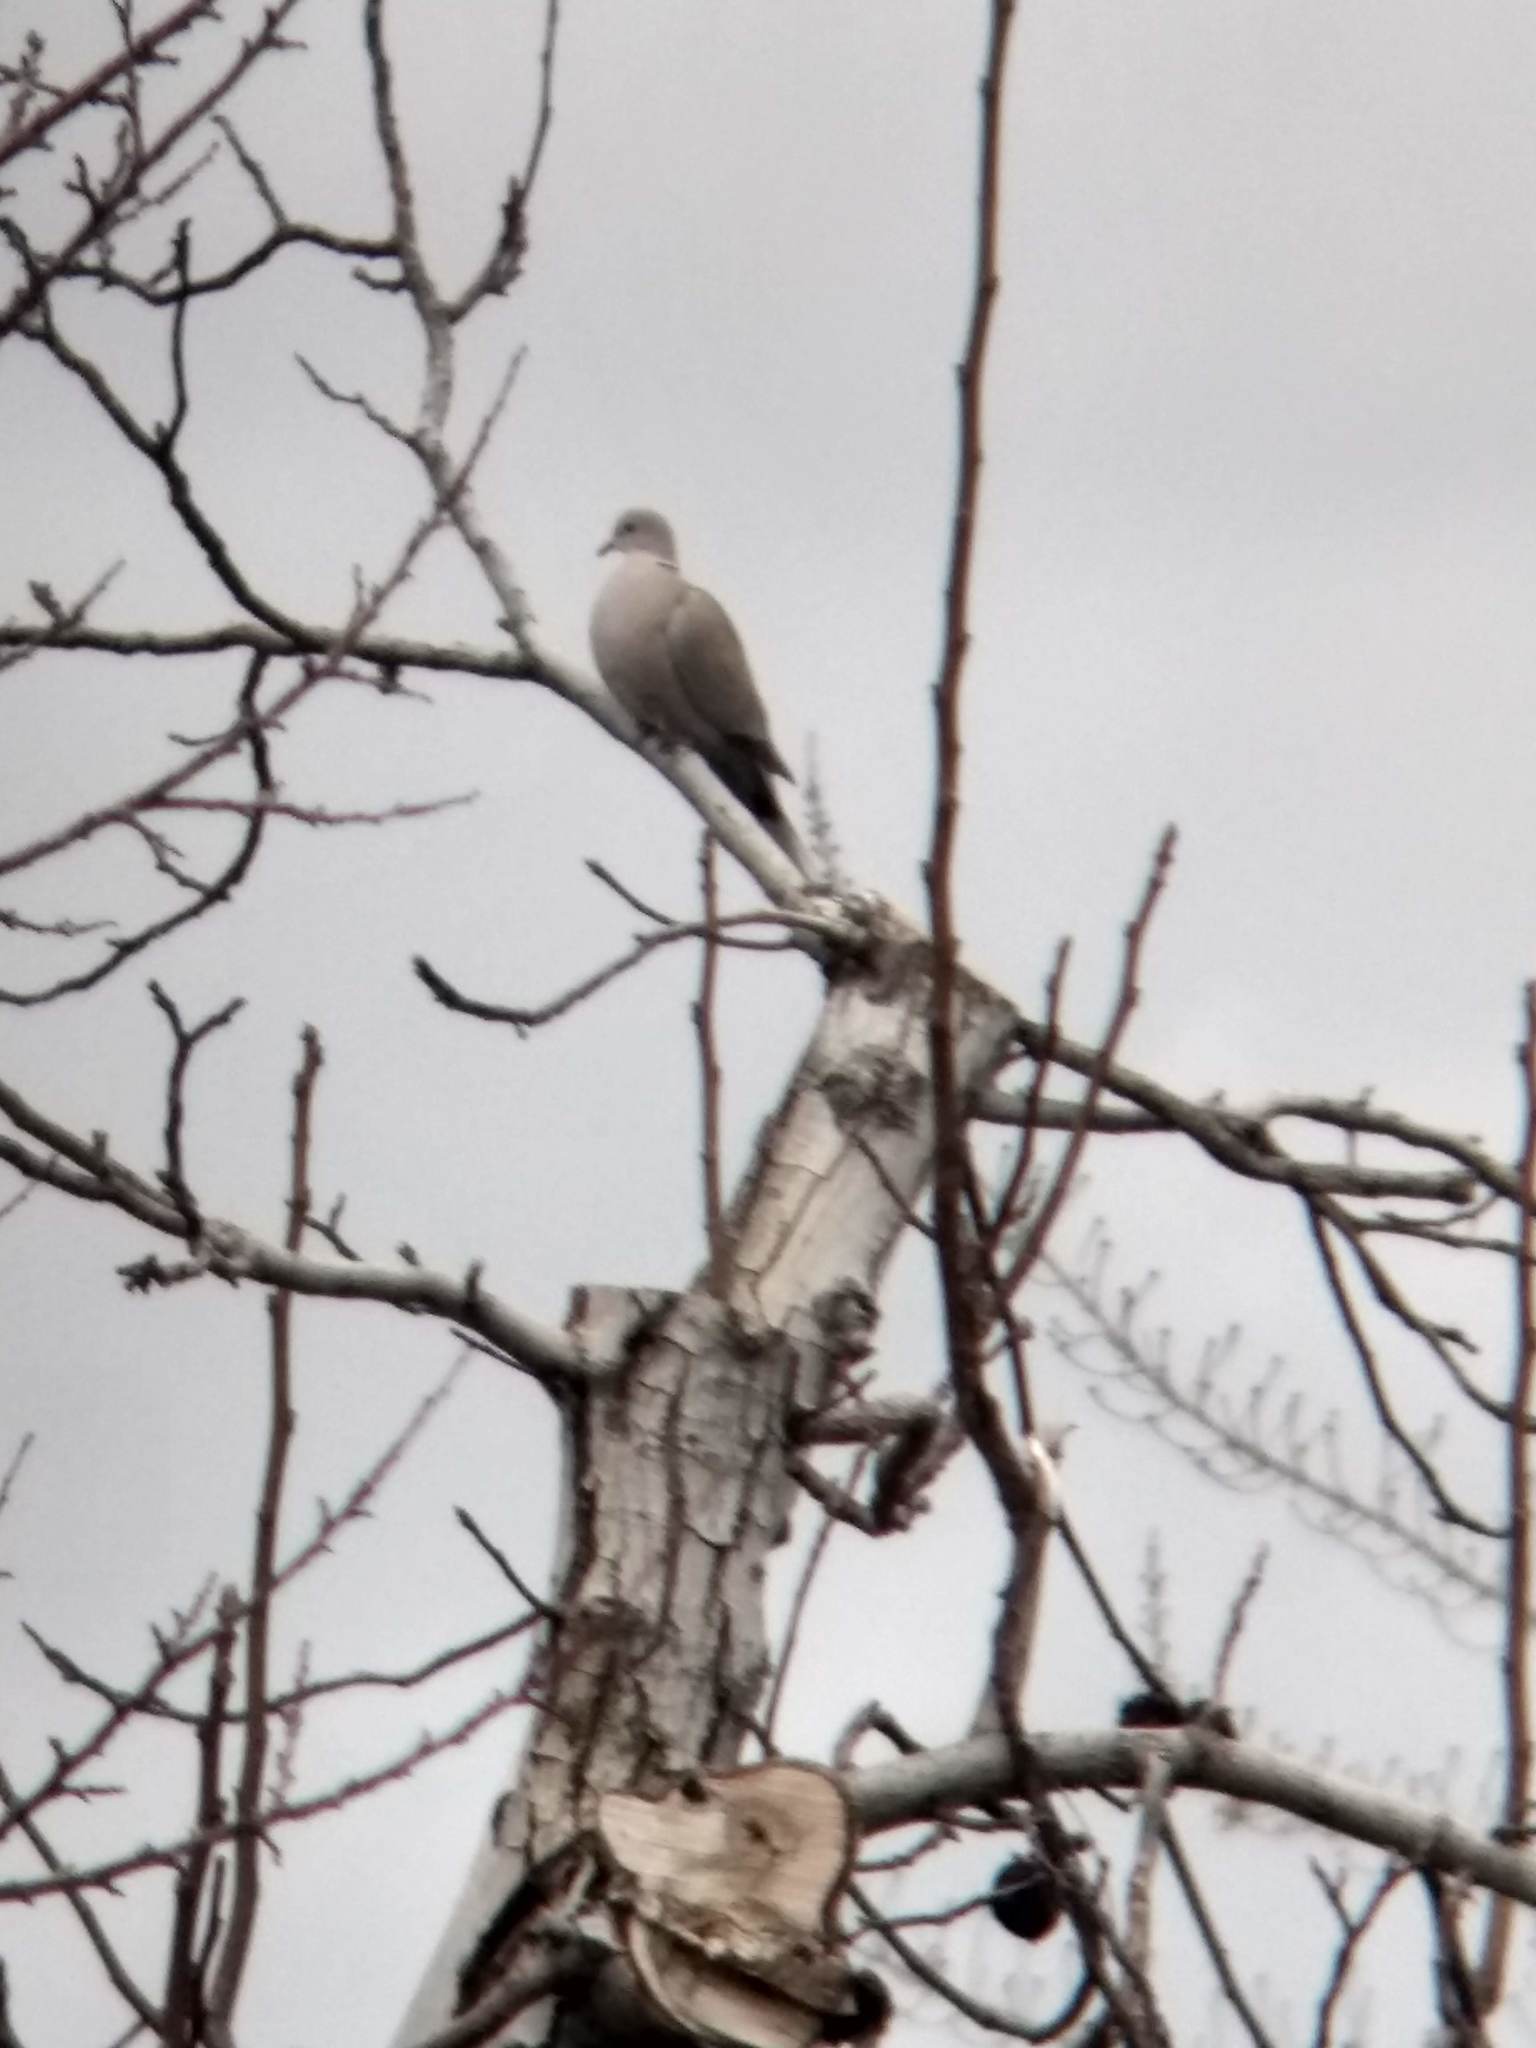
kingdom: Animalia
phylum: Chordata
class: Aves
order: Columbiformes
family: Columbidae
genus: Streptopelia
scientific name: Streptopelia decaocto
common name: Eurasian collared dove
